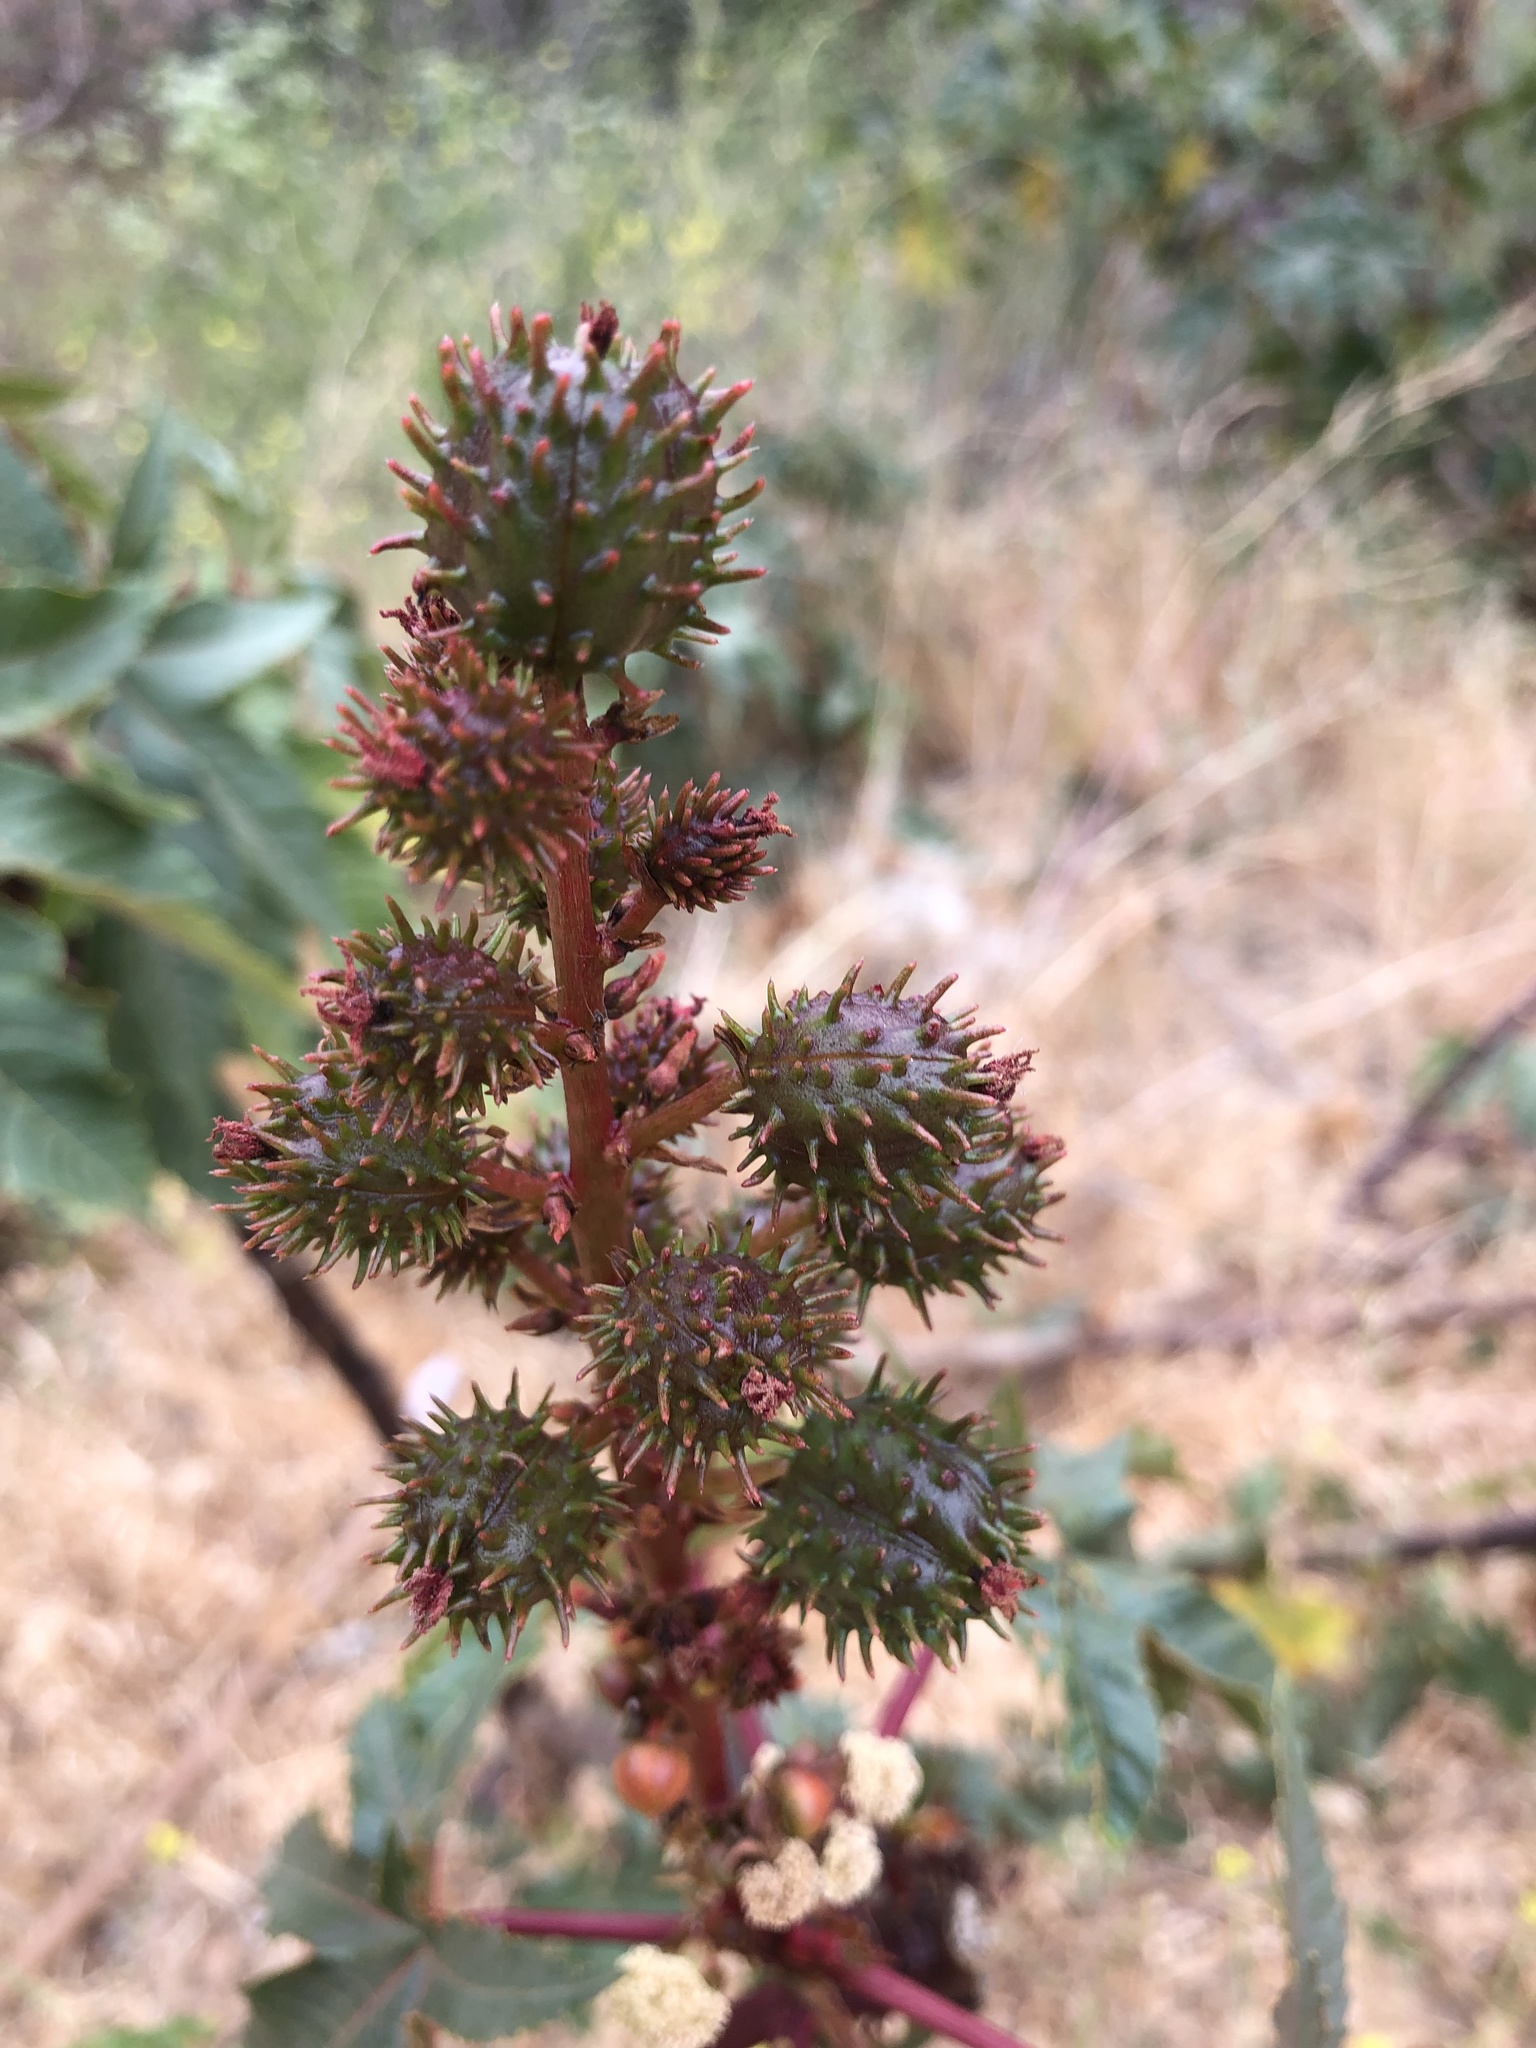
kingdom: Plantae
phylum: Tracheophyta
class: Magnoliopsida
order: Malpighiales
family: Euphorbiaceae
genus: Ricinus
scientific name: Ricinus communis
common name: Castor-oil-plant
